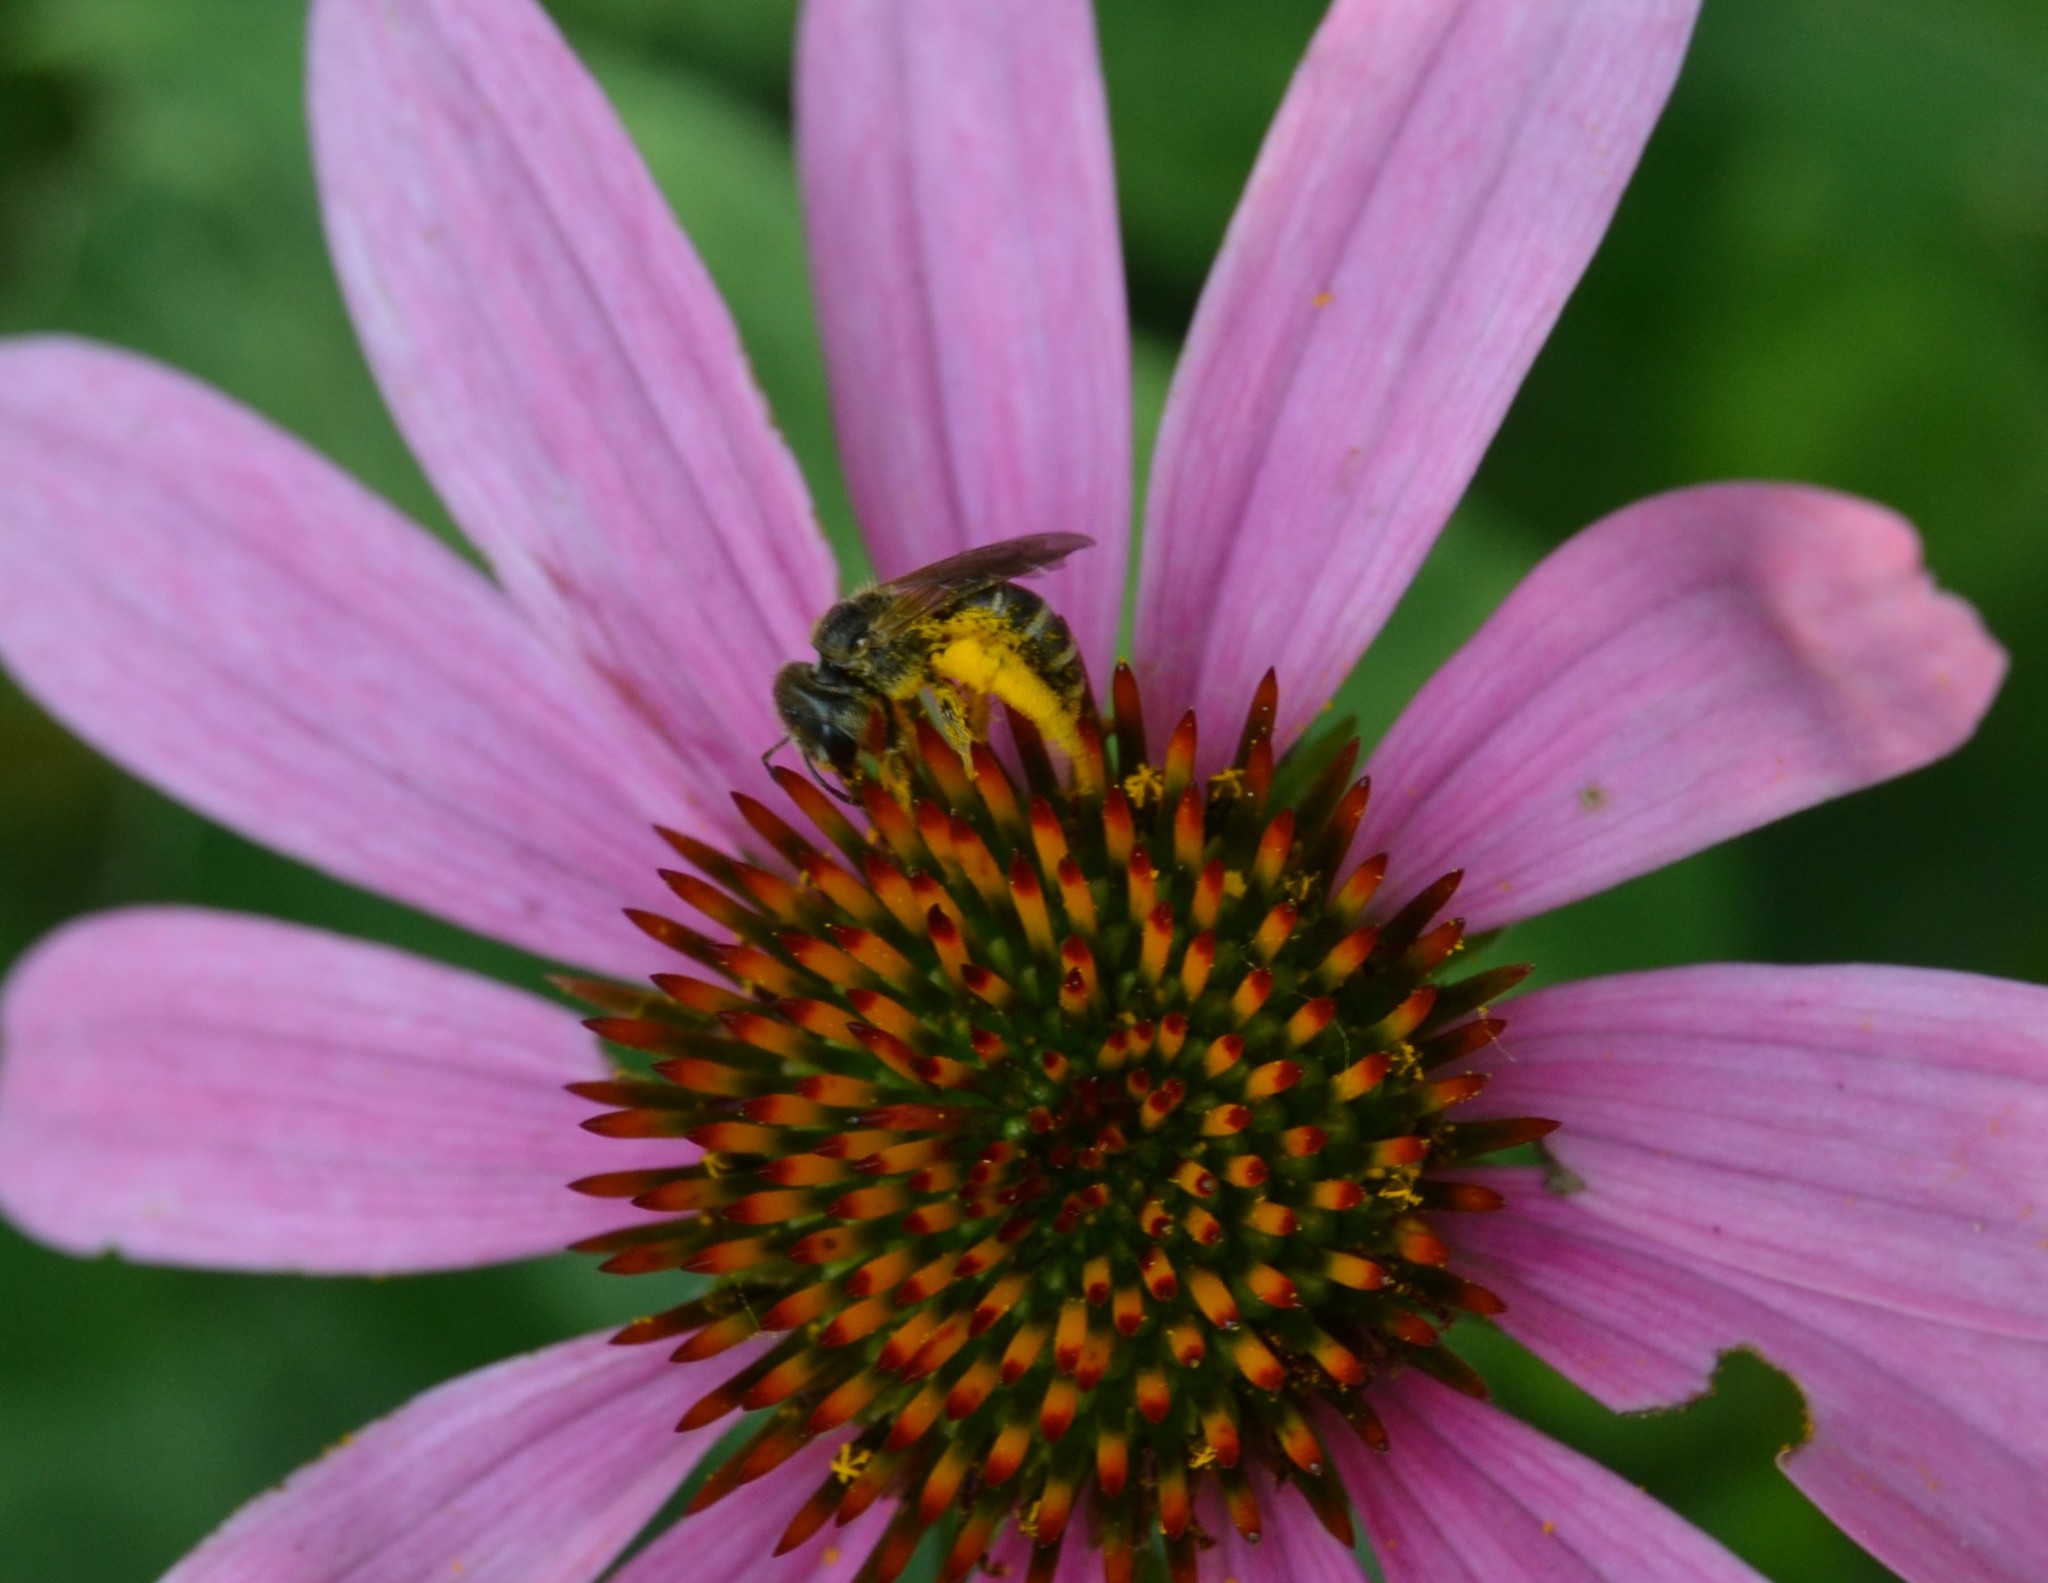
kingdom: Animalia
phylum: Arthropoda
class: Insecta
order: Hymenoptera
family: Halictidae
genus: Halictus
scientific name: Halictus ligatus
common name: Ligated furrow bee
